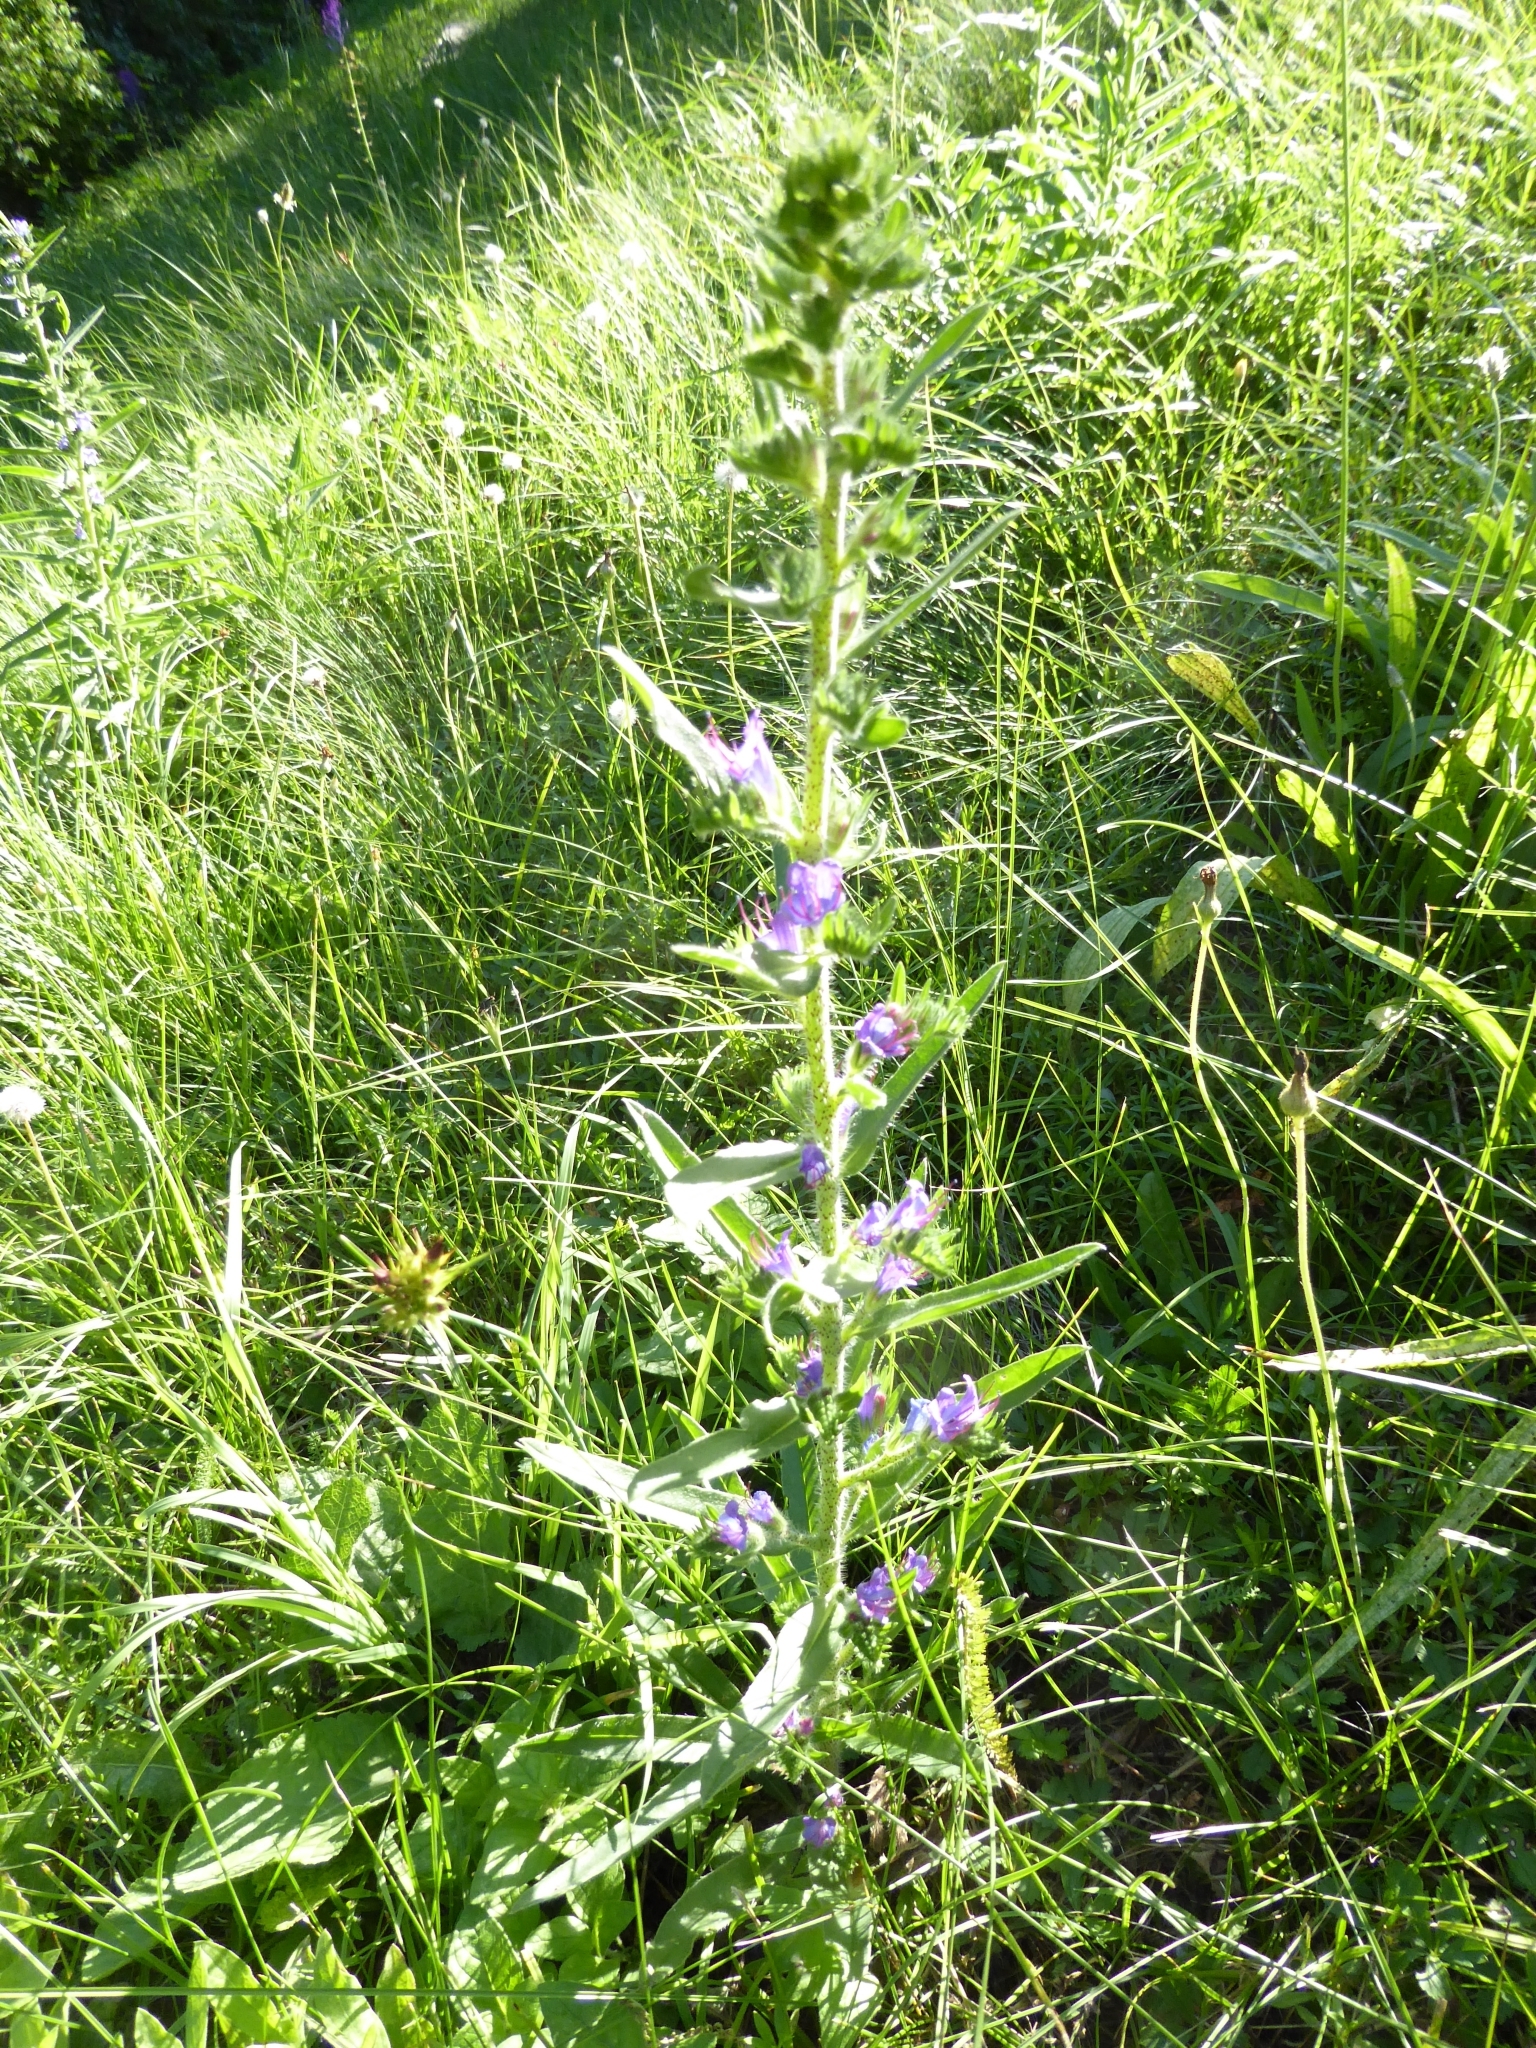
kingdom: Plantae
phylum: Tracheophyta
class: Magnoliopsida
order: Boraginales
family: Boraginaceae
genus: Echium
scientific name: Echium vulgare
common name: Common viper's bugloss
